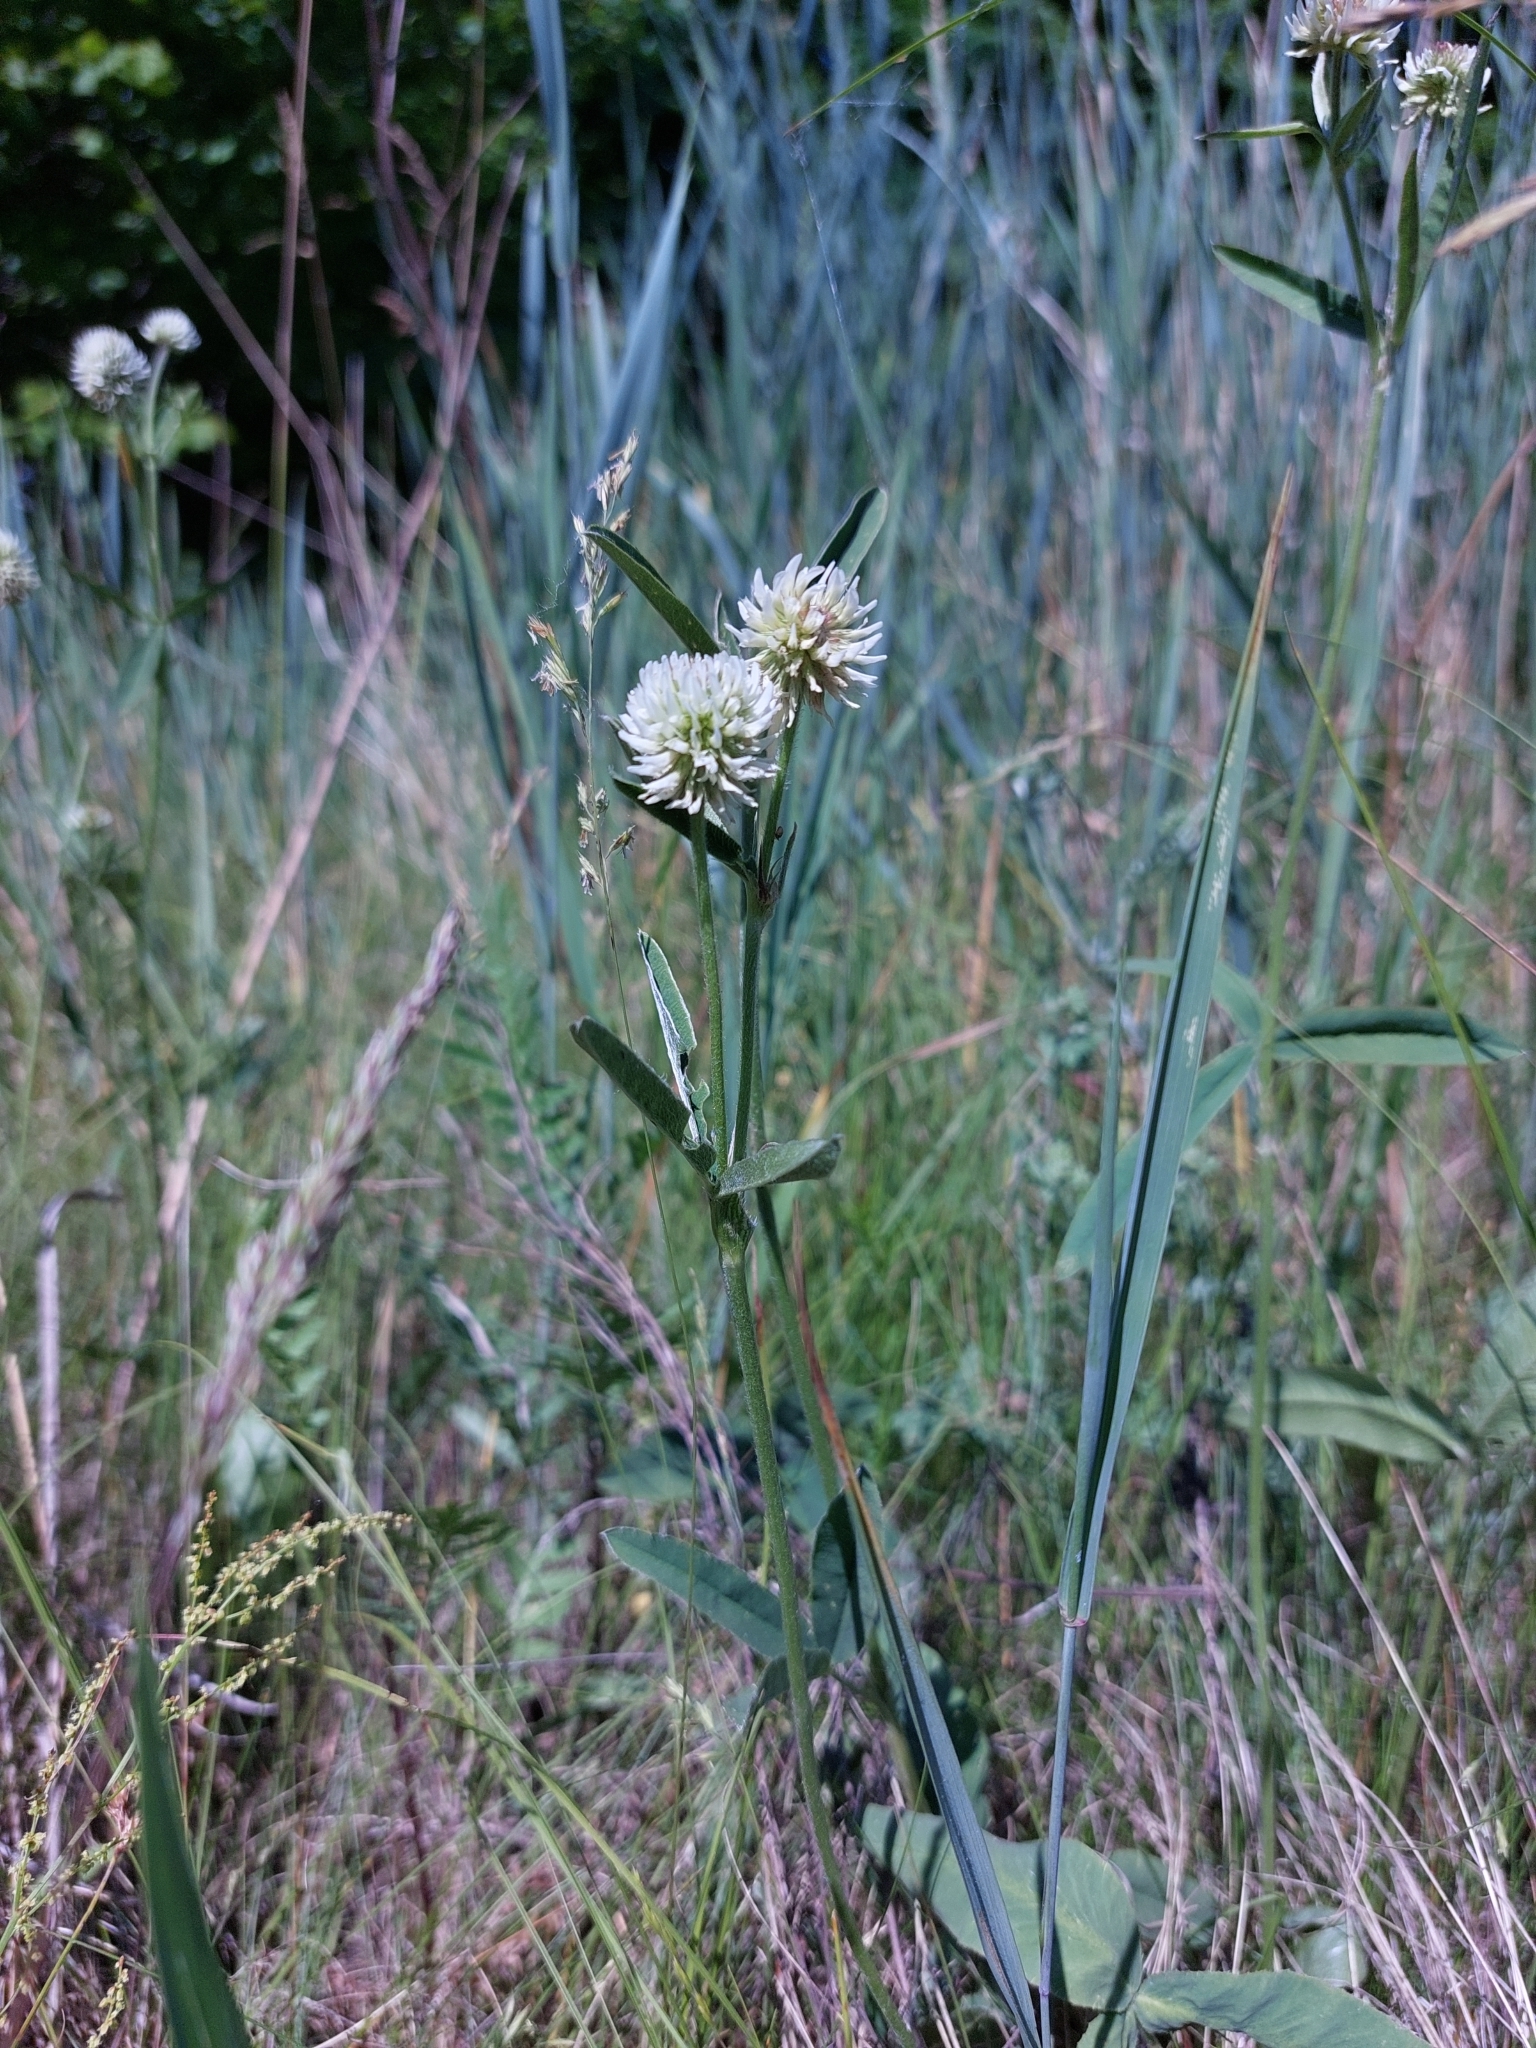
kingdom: Plantae
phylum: Tracheophyta
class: Magnoliopsida
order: Fabales
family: Fabaceae
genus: Trifolium
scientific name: Trifolium montanum
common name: Mountain clover
